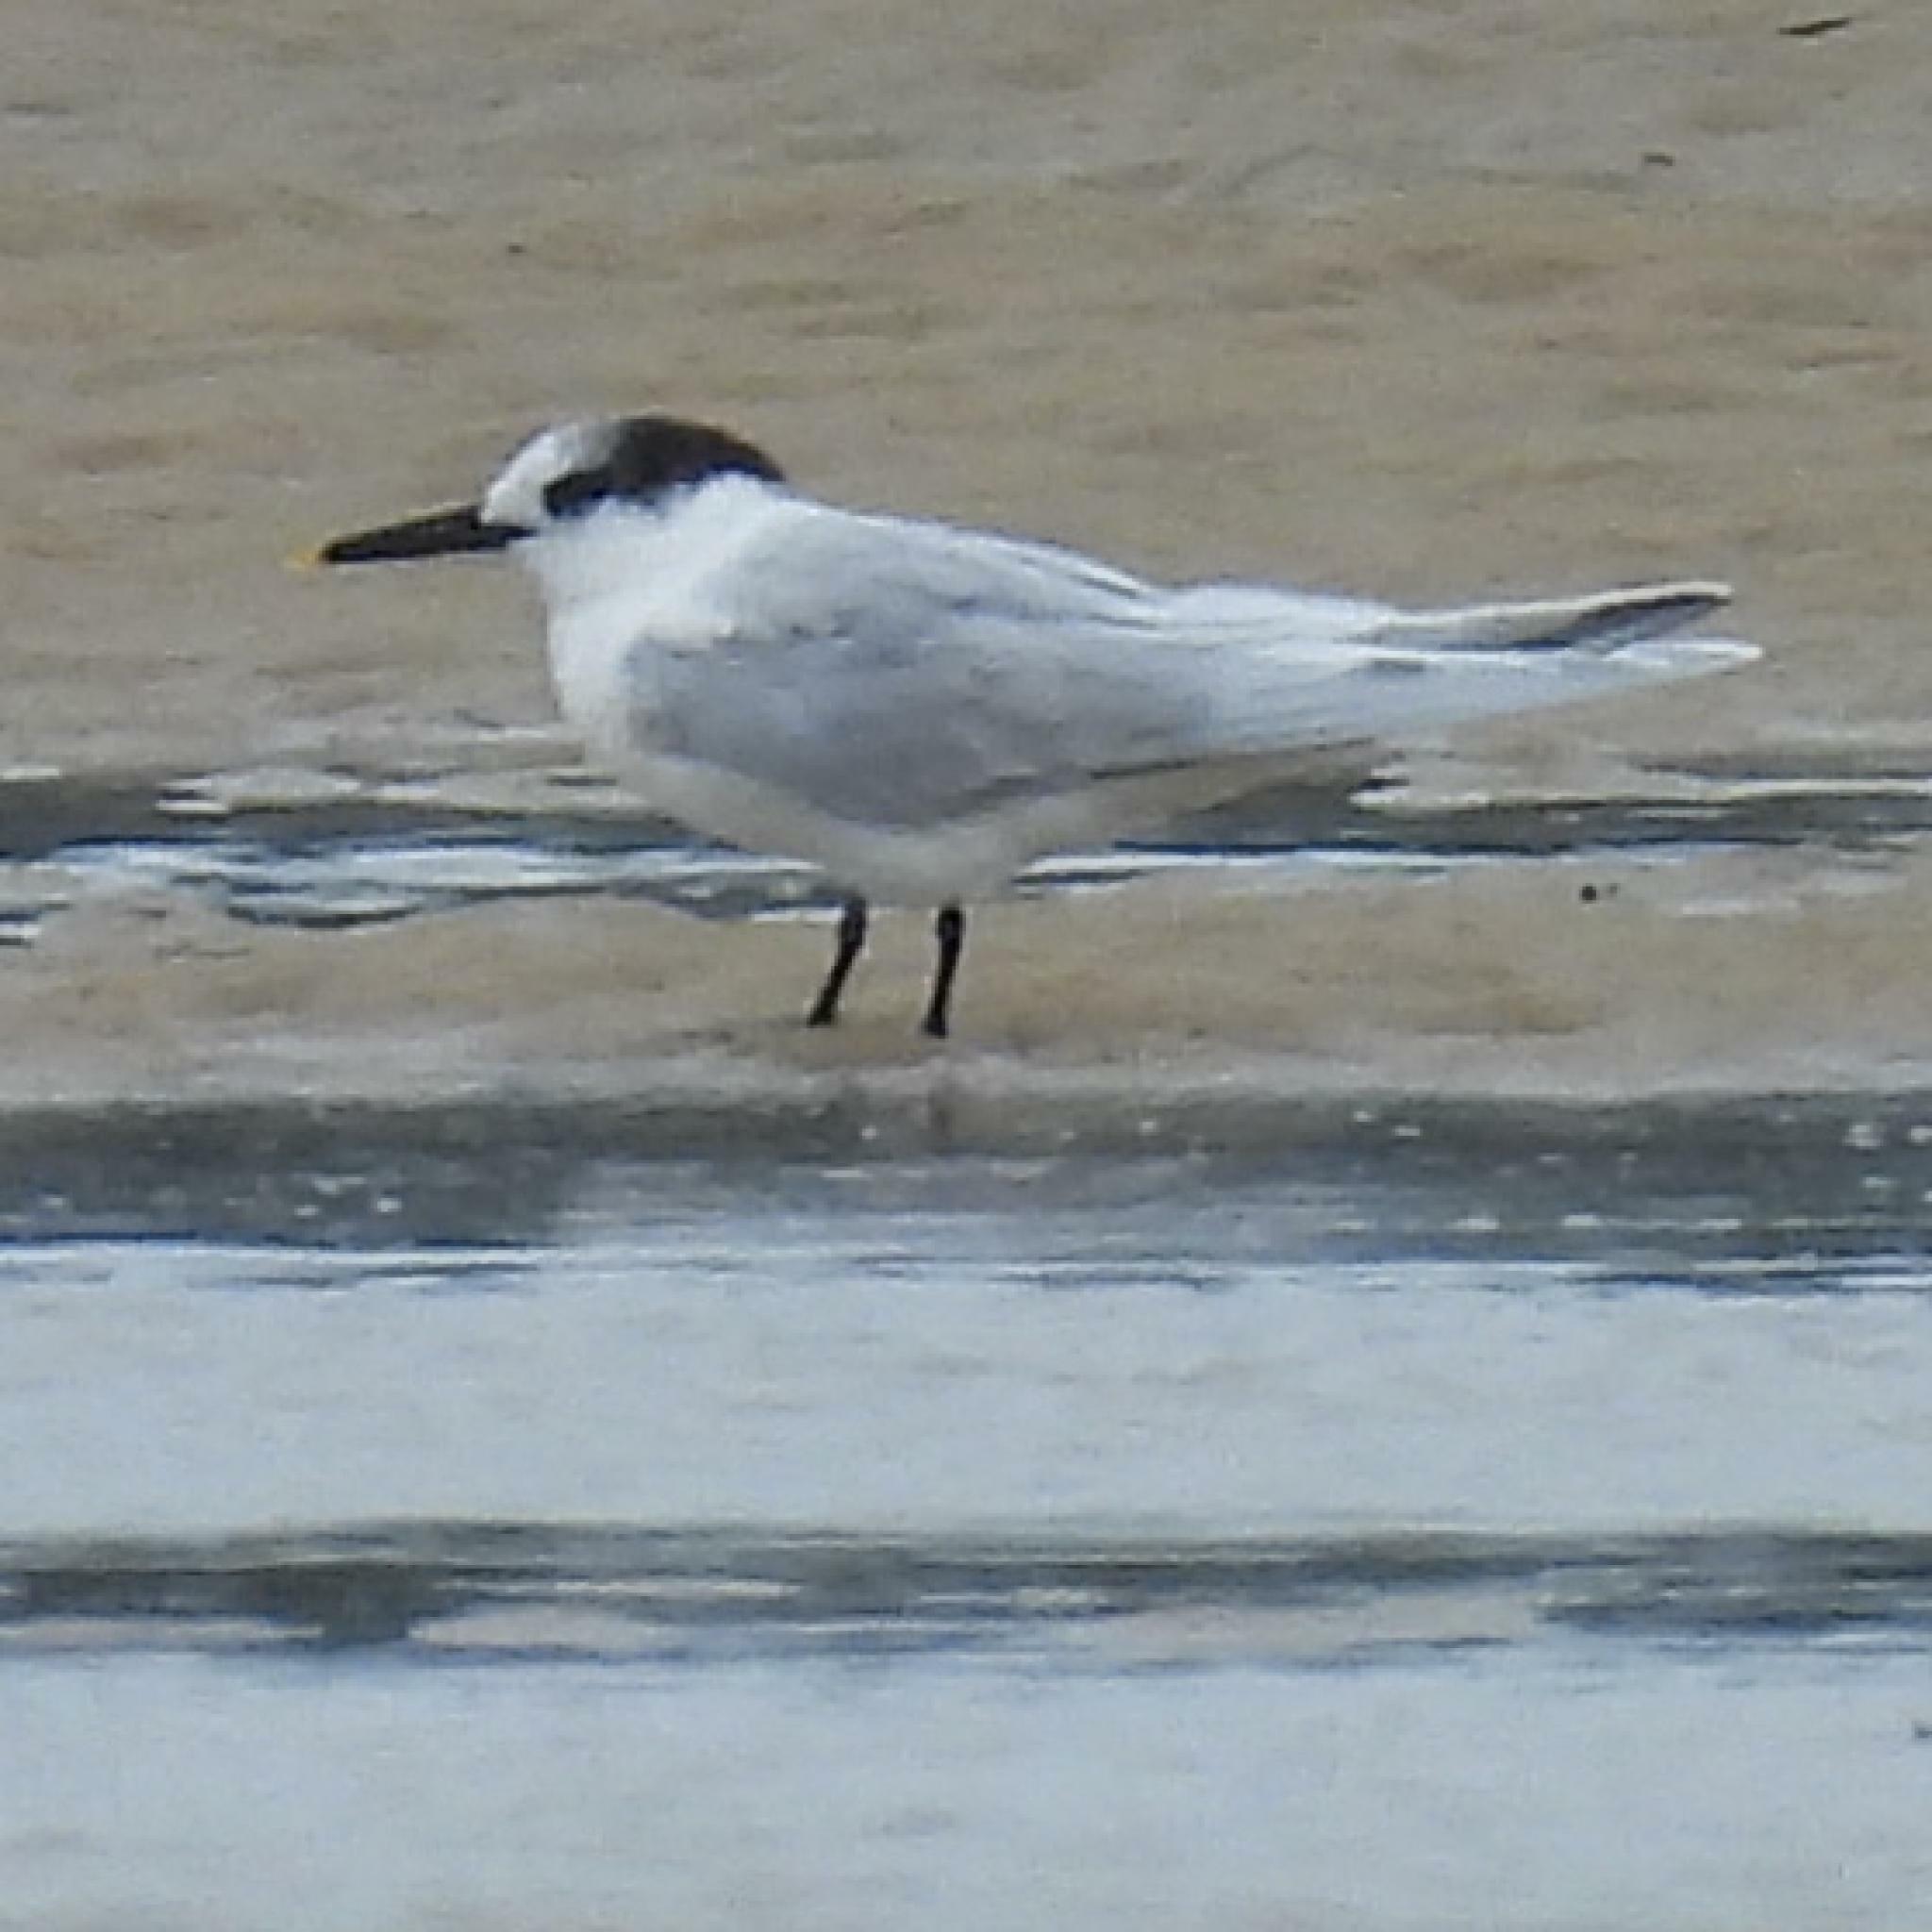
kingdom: Animalia
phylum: Chordata
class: Aves
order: Charadriiformes
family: Laridae
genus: Thalasseus
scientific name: Thalasseus sandvicensis
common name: Sandwich tern
